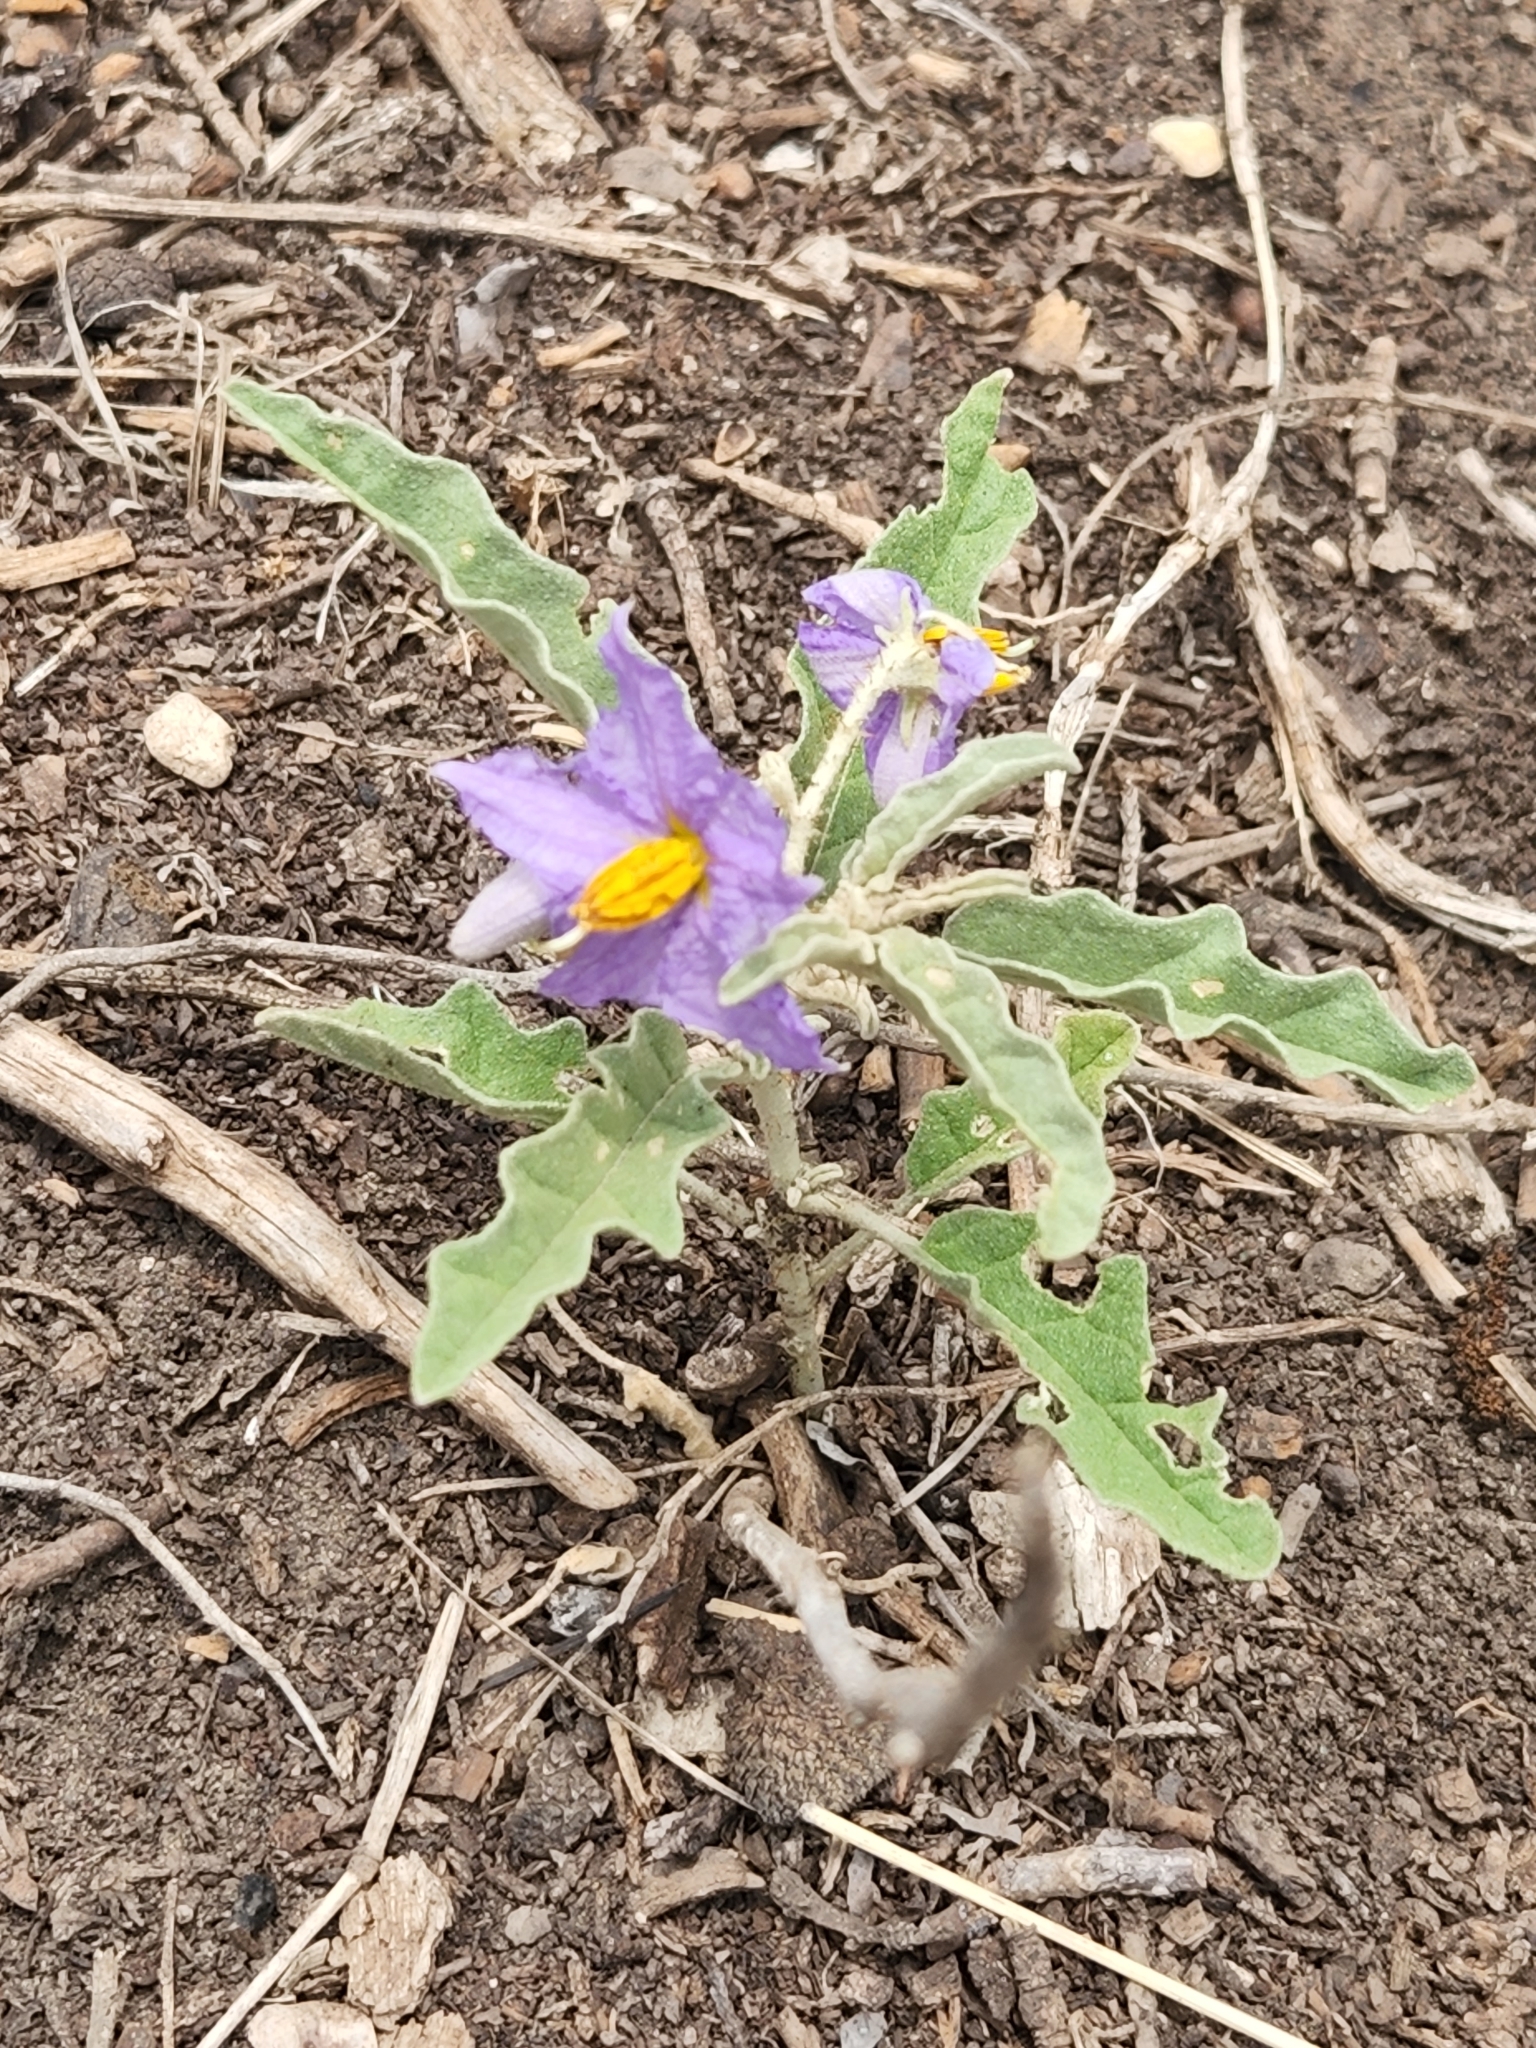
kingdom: Plantae
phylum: Tracheophyta
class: Magnoliopsida
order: Solanales
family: Solanaceae
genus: Solanum
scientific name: Solanum elaeagnifolium
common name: Silverleaf nightshade
